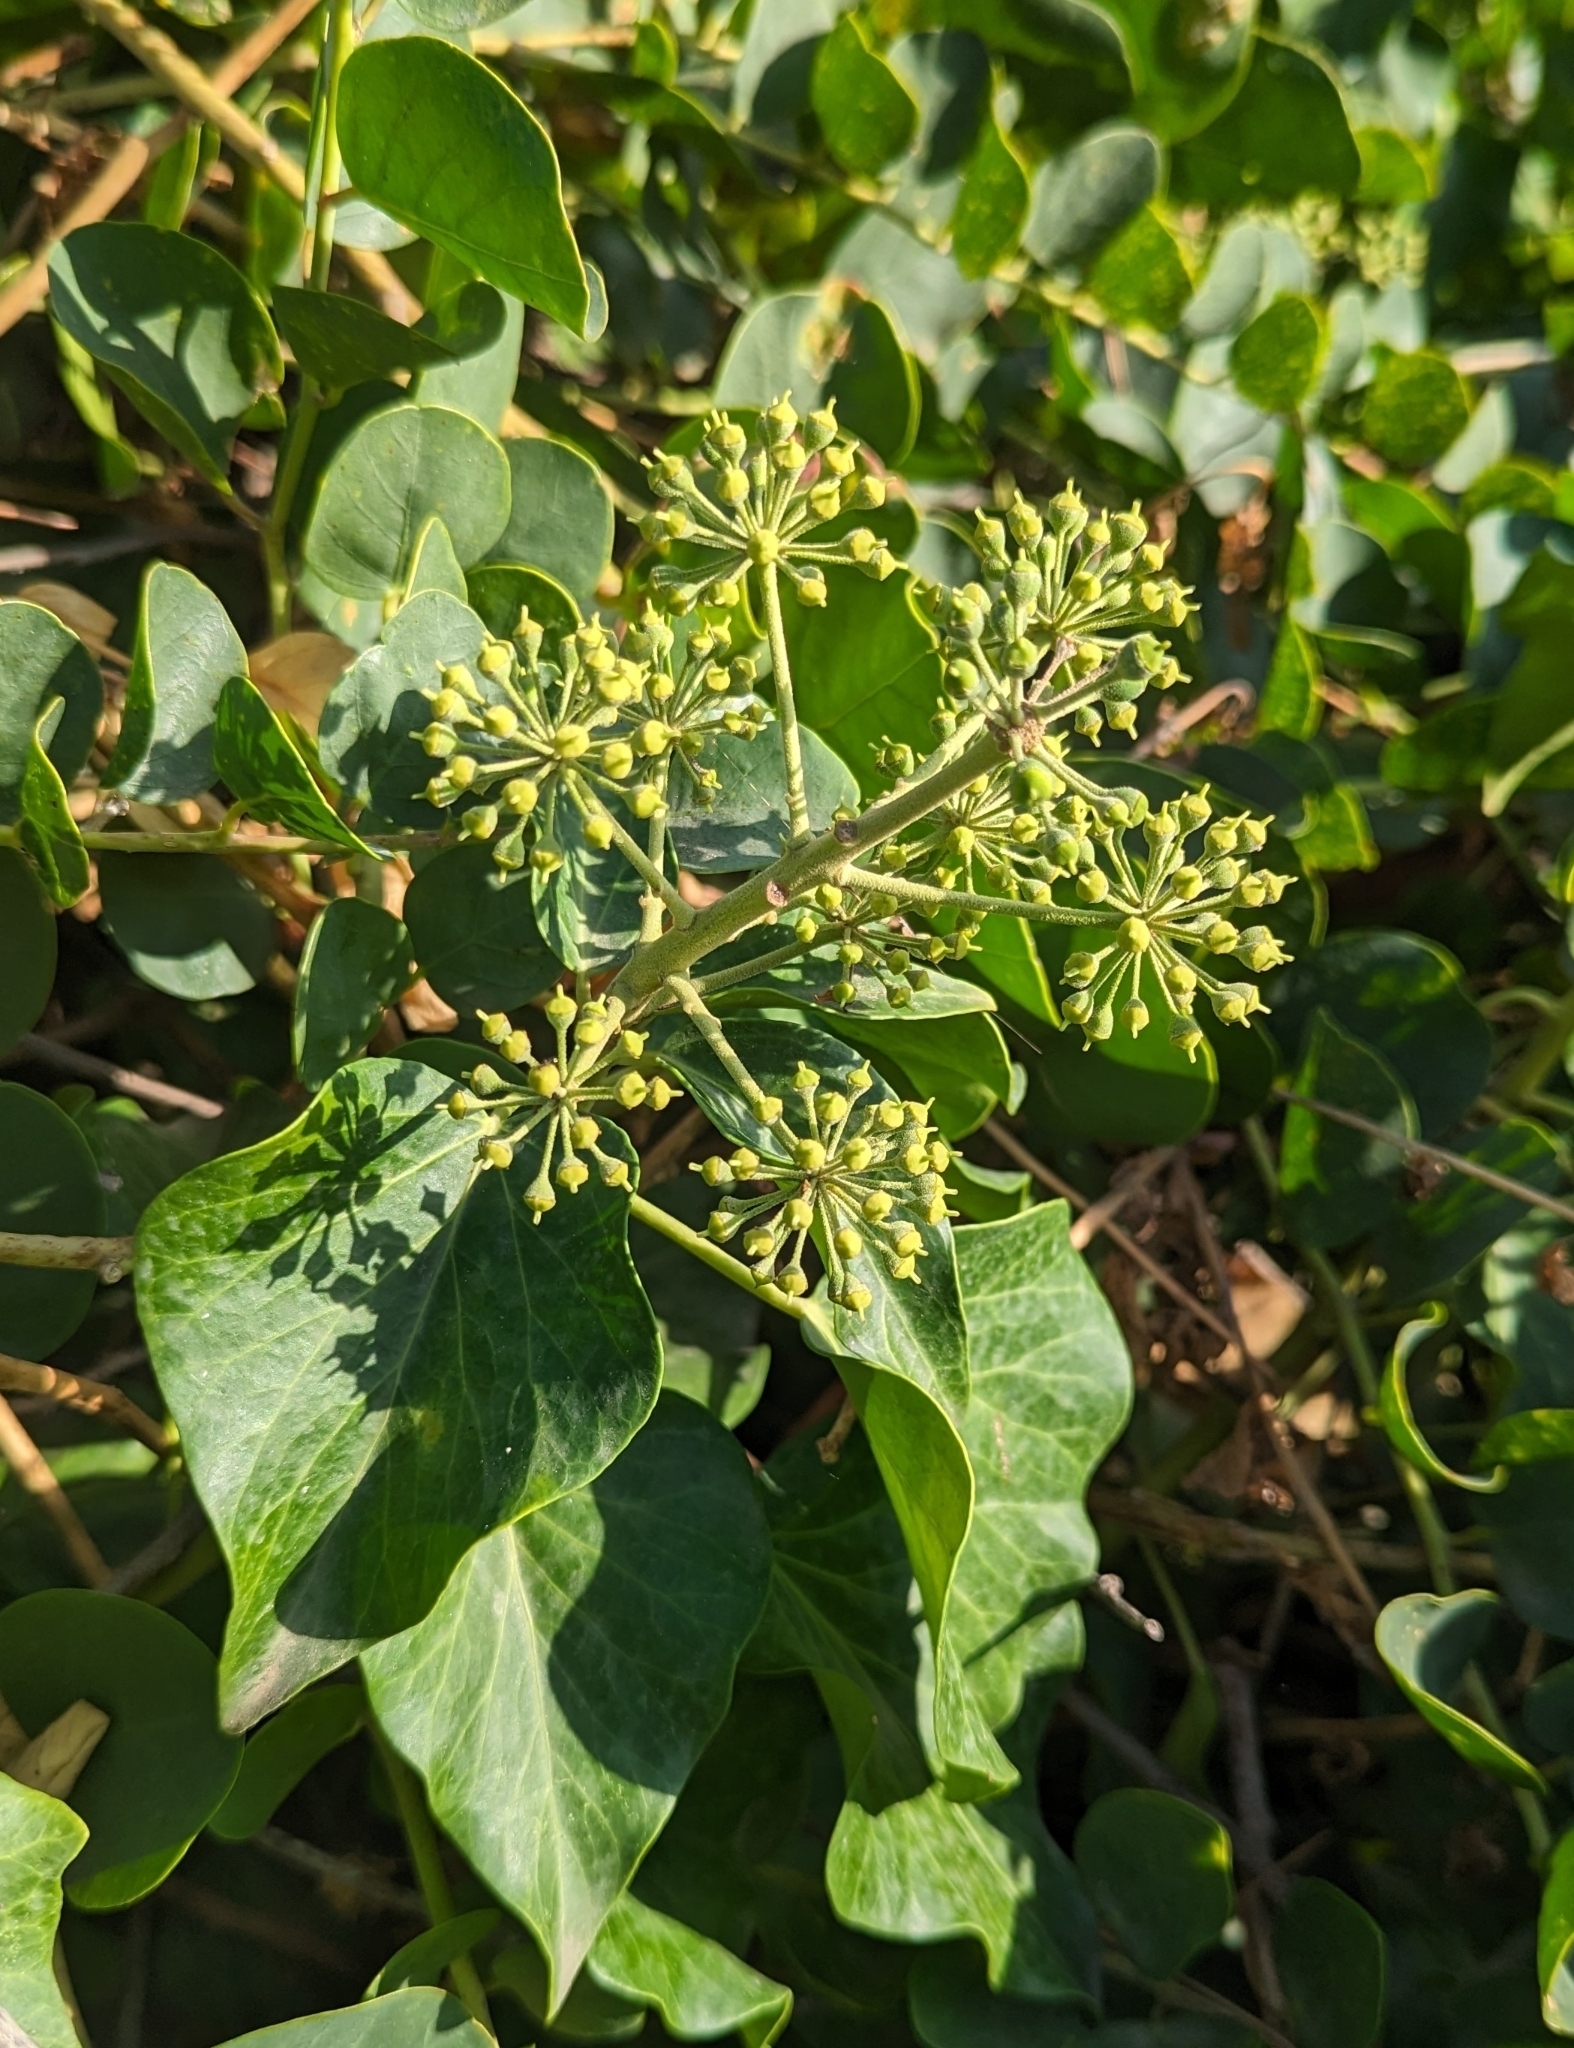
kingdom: Plantae
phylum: Tracheophyta
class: Magnoliopsida
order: Apiales
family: Araliaceae
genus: Hedera
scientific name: Hedera helix
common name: Ivy
